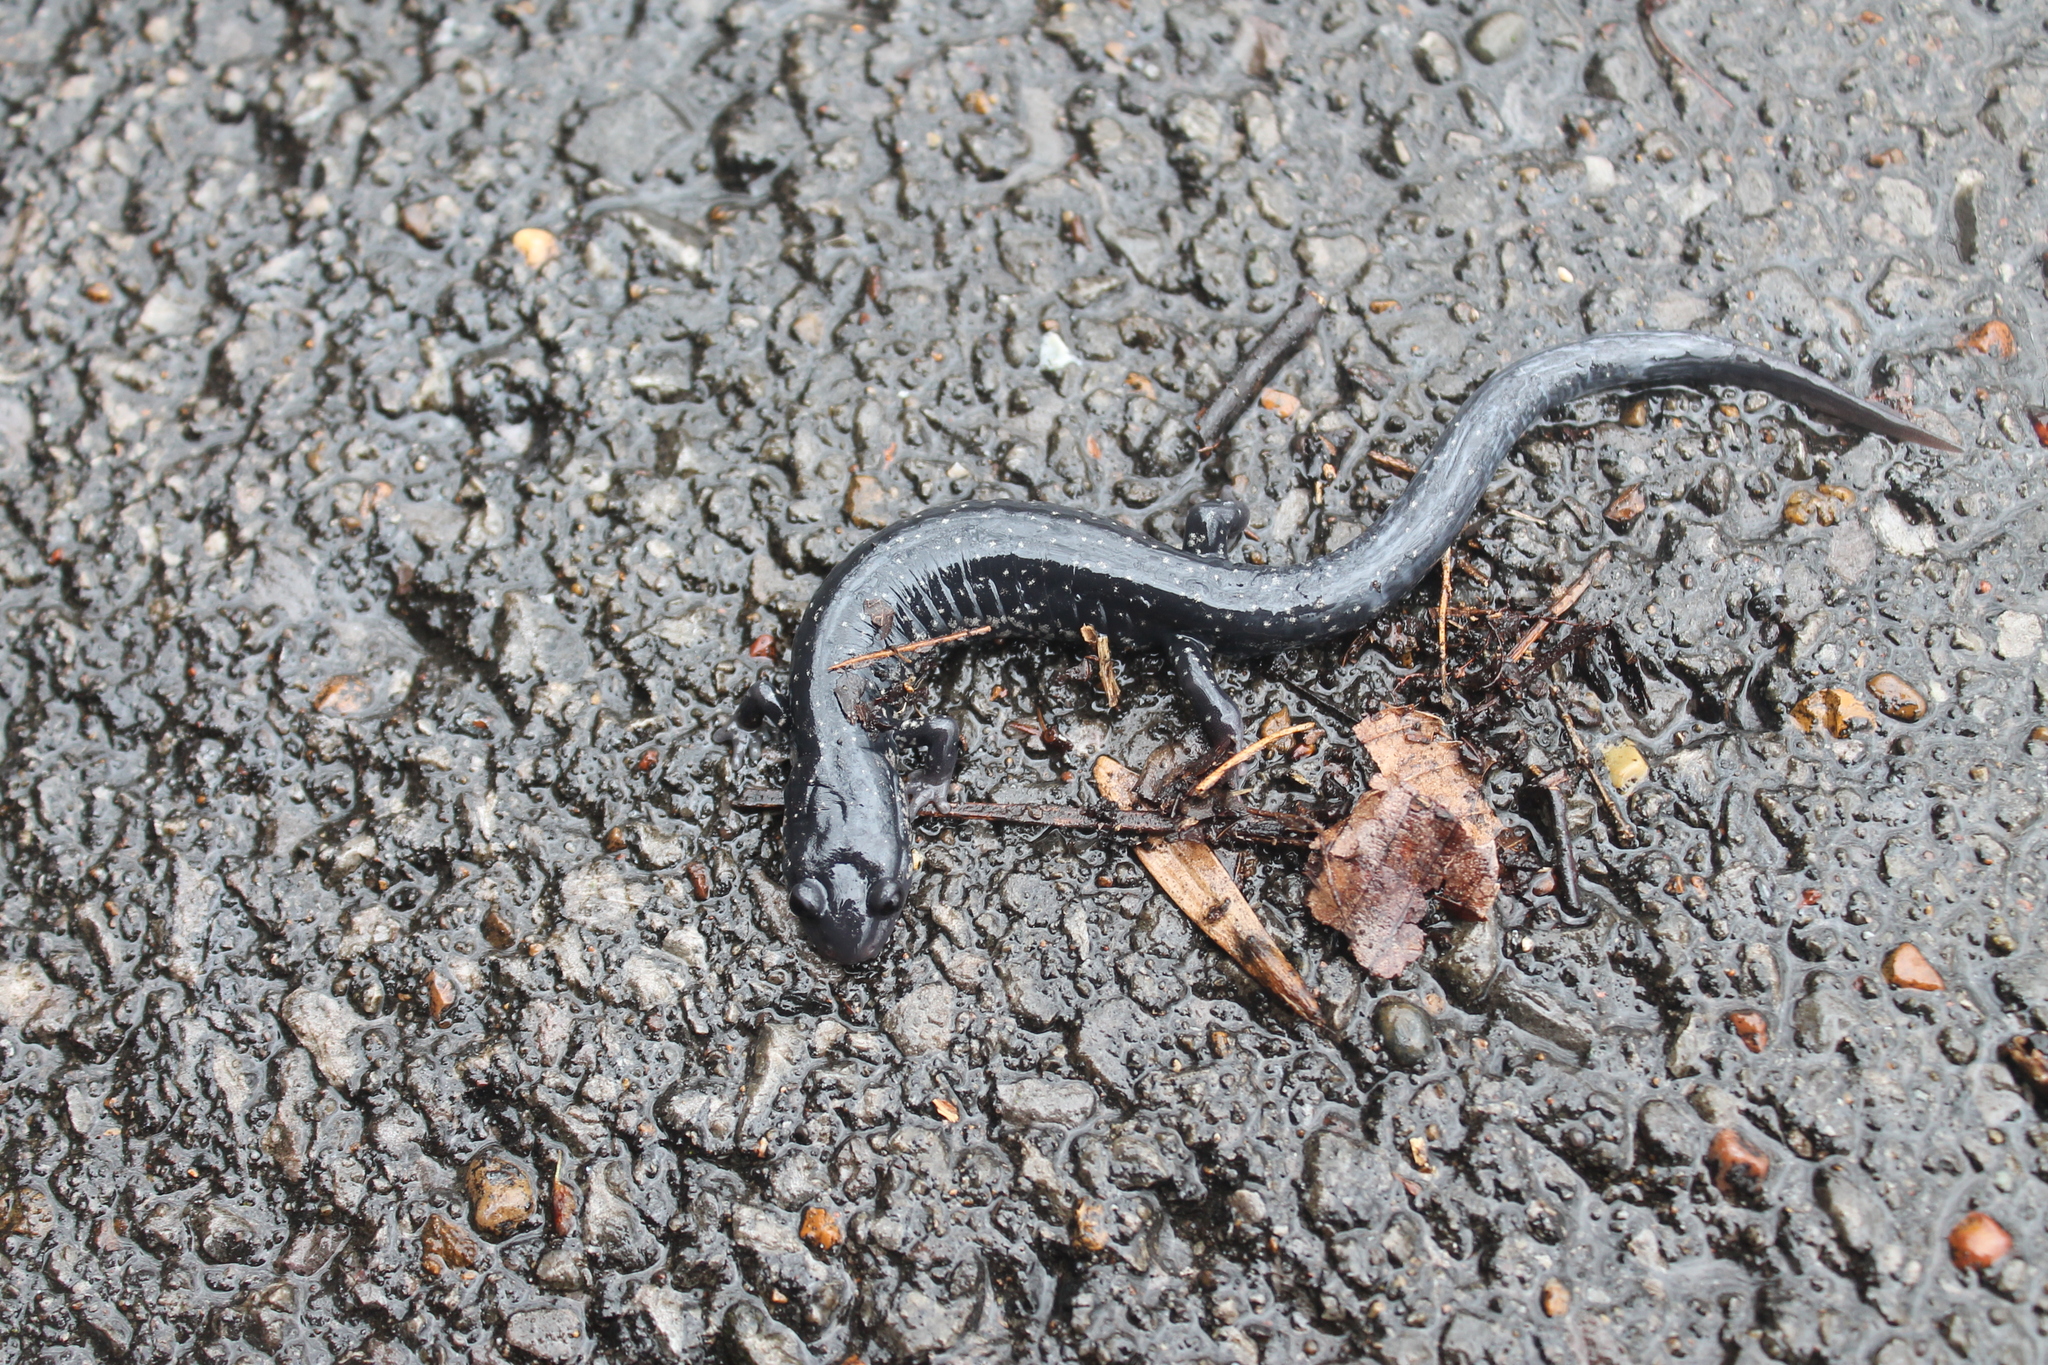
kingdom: Animalia
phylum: Chordata
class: Amphibia
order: Caudata
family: Plethodontidae
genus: Plethodon
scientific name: Plethodon glutinosus
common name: Northern slimy salamander
